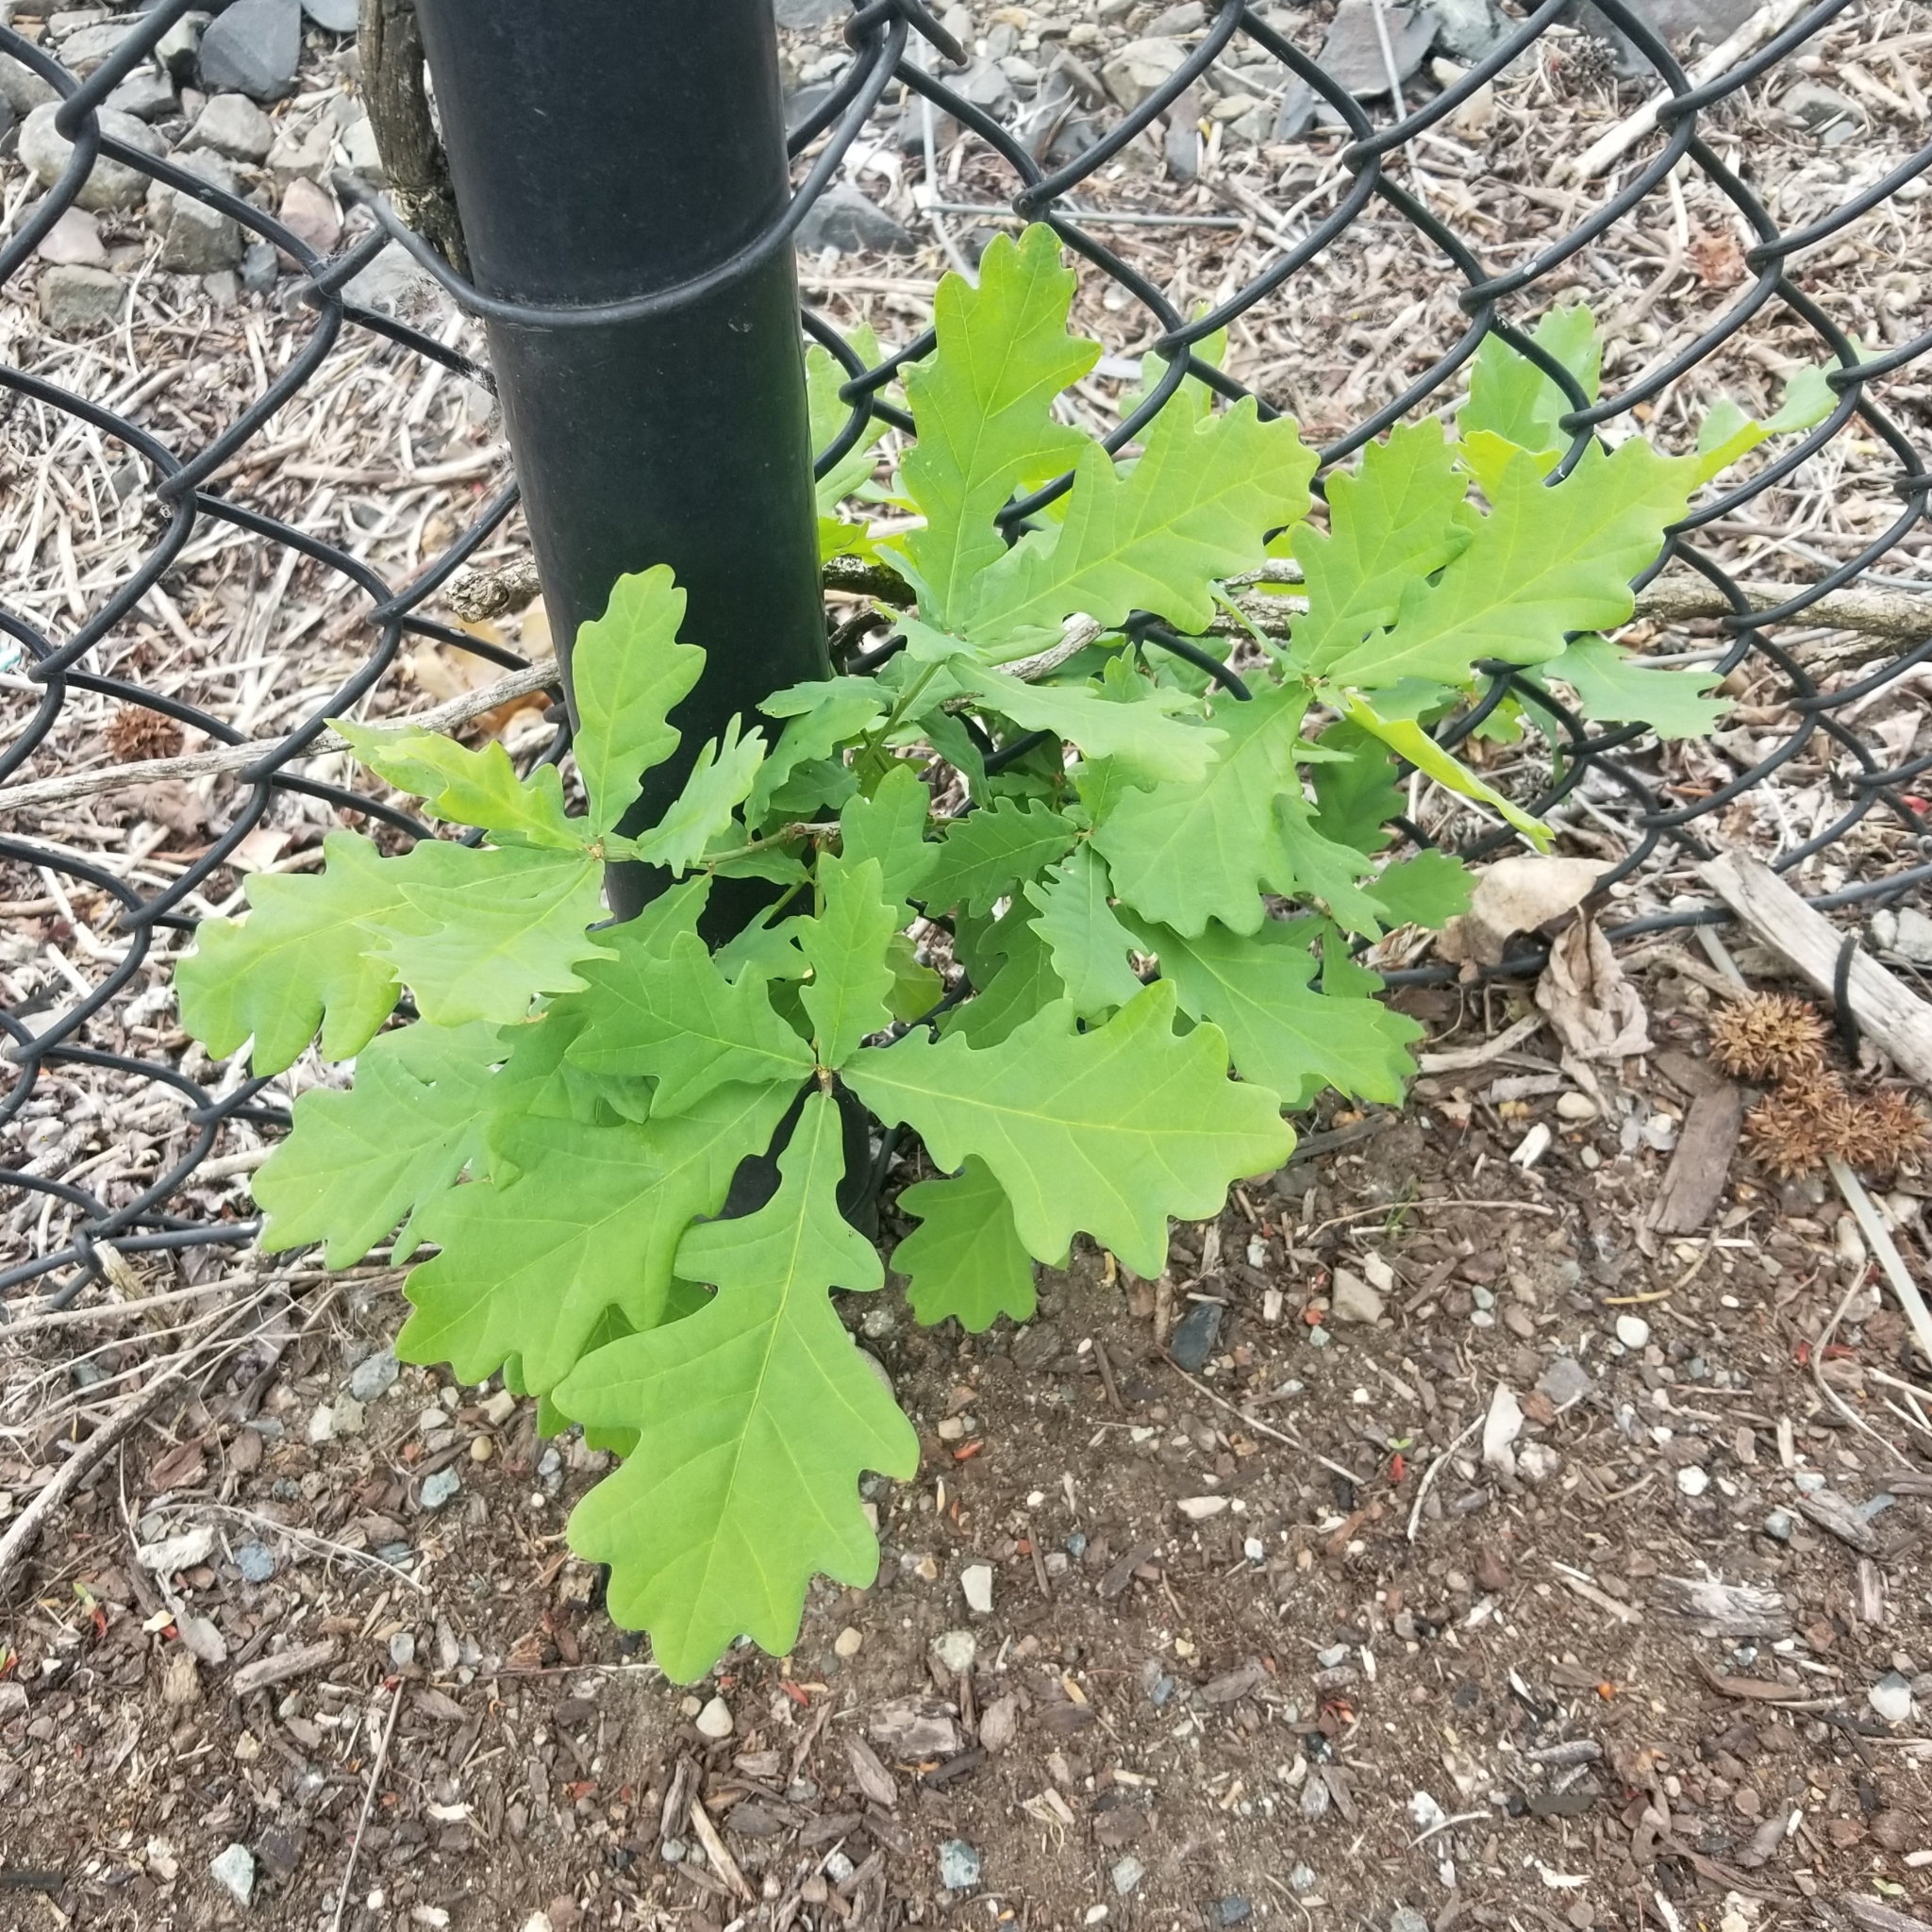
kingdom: Plantae
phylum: Tracheophyta
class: Magnoliopsida
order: Fagales
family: Fagaceae
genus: Quercus
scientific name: Quercus robur
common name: Pedunculate oak
